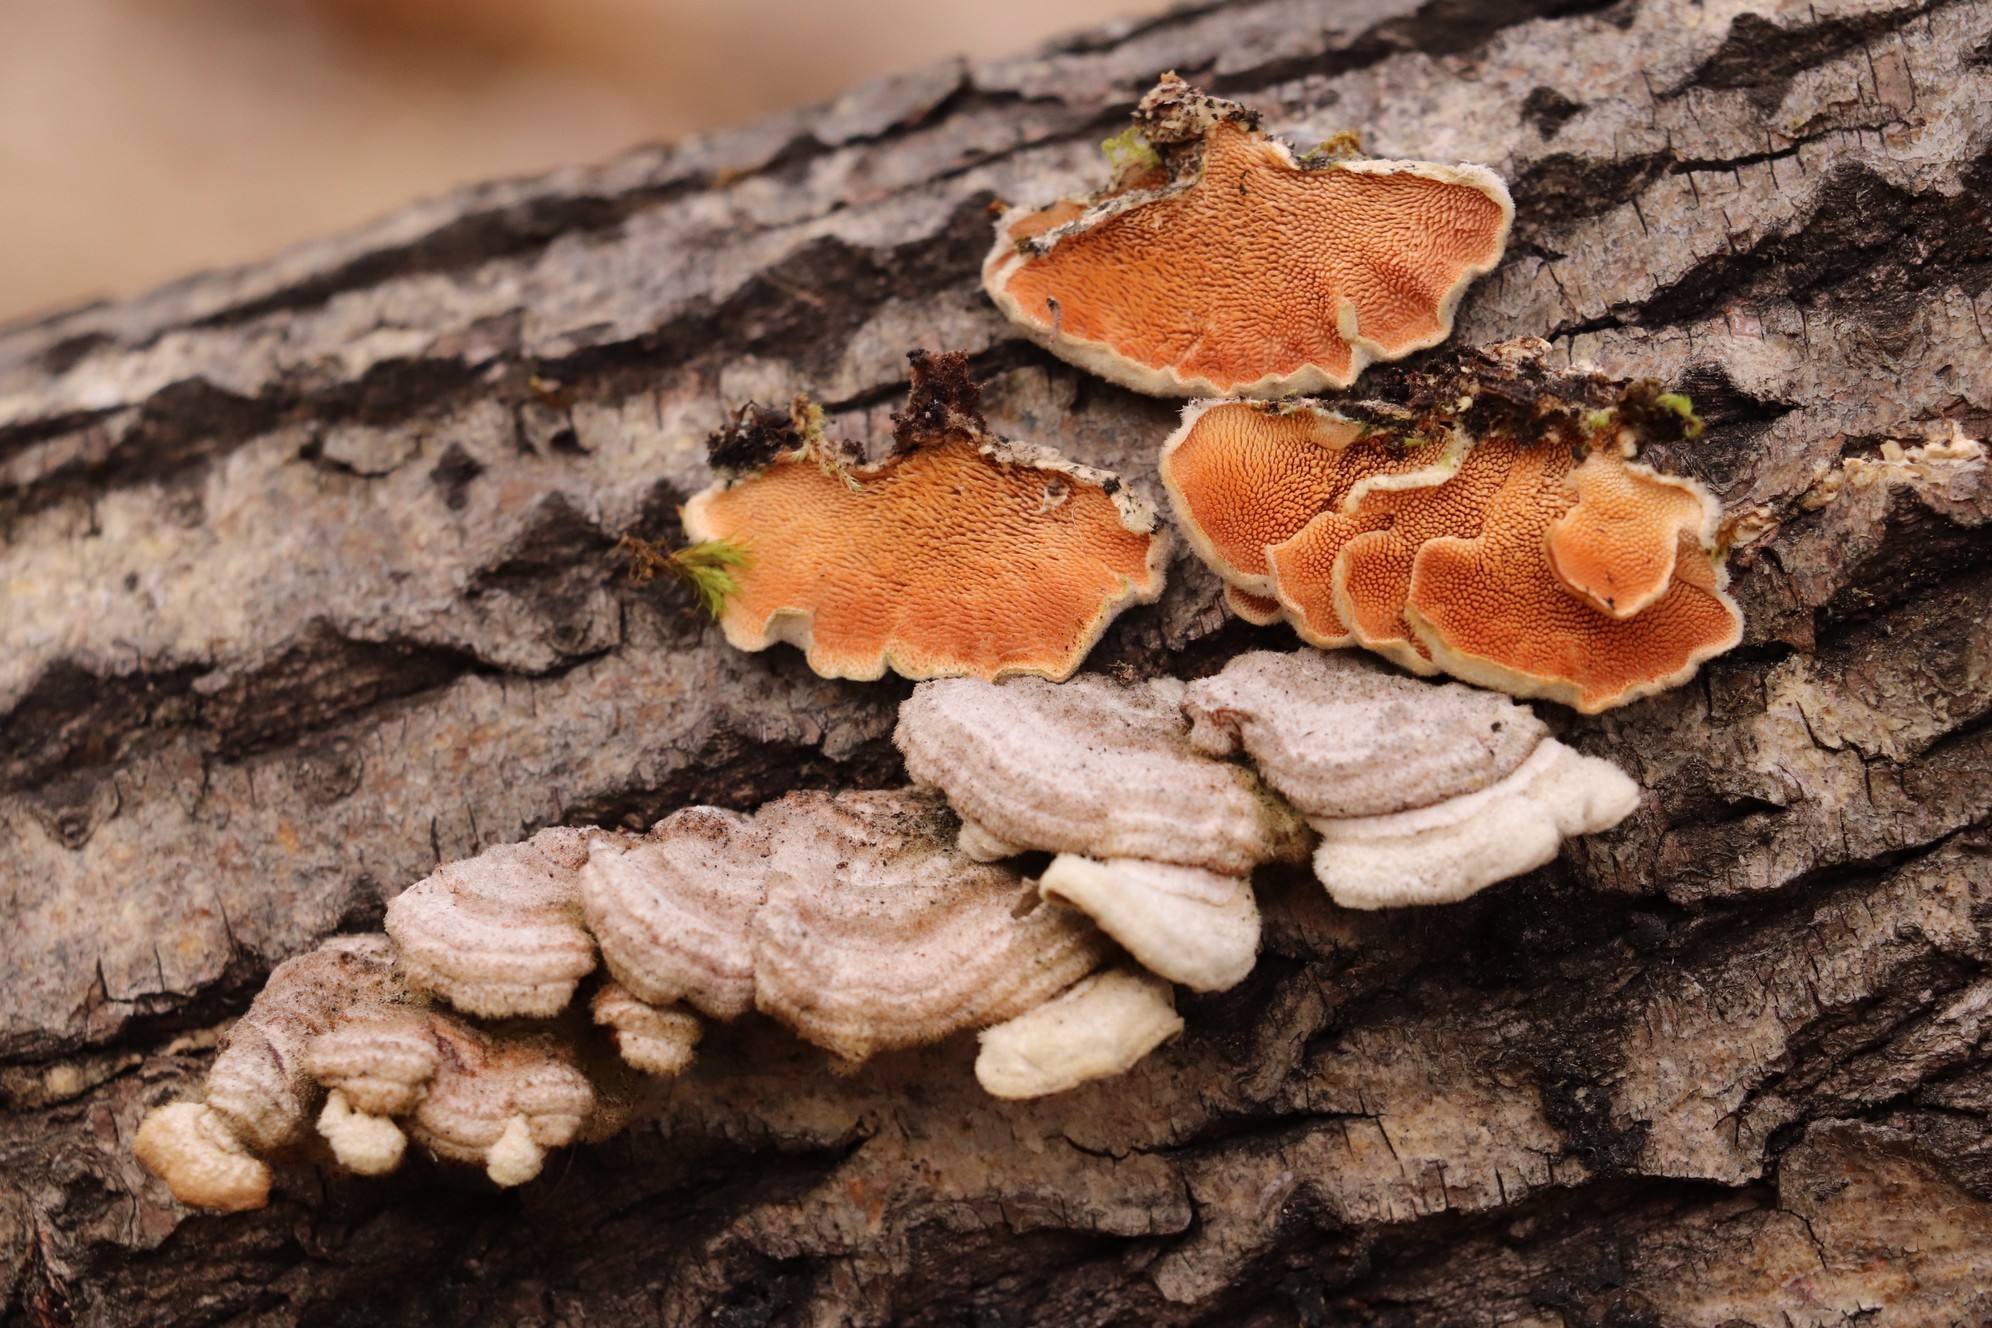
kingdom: Fungi
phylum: Basidiomycota
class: Agaricomycetes
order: Polyporales
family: Steccherinaceae
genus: Steccherinum
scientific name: Steccherinum ochraceum
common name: Ochre spreading tooth
